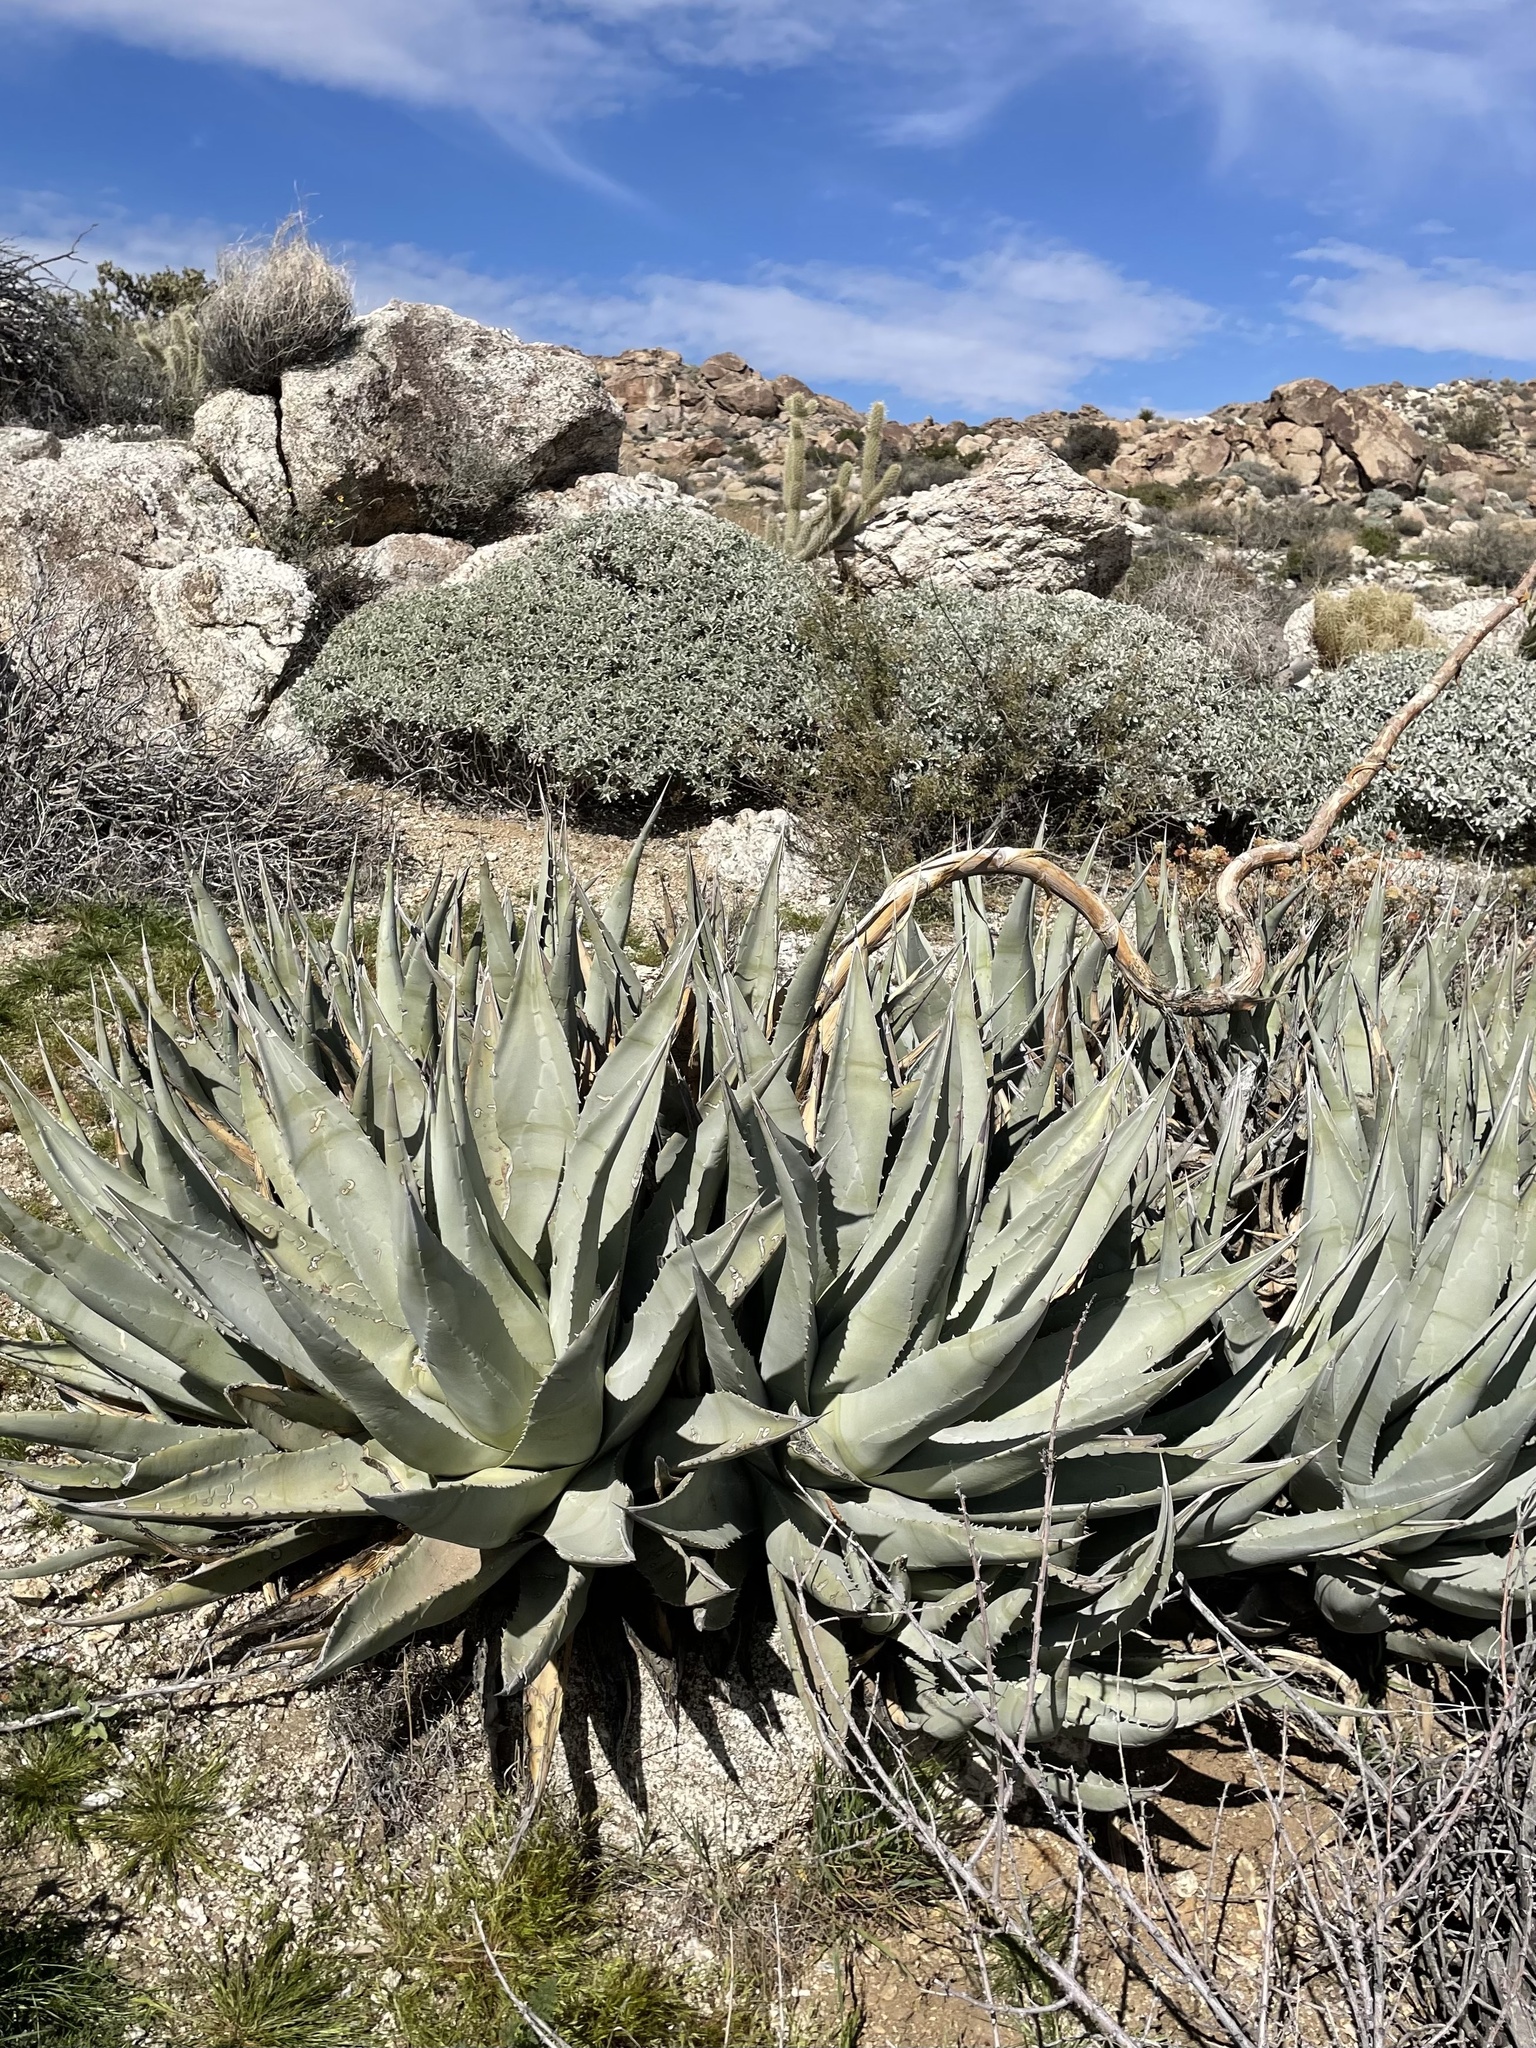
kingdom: Plantae
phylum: Tracheophyta
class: Liliopsida
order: Asparagales
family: Asparagaceae
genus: Agave
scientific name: Agave deserti
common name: Desert agave
